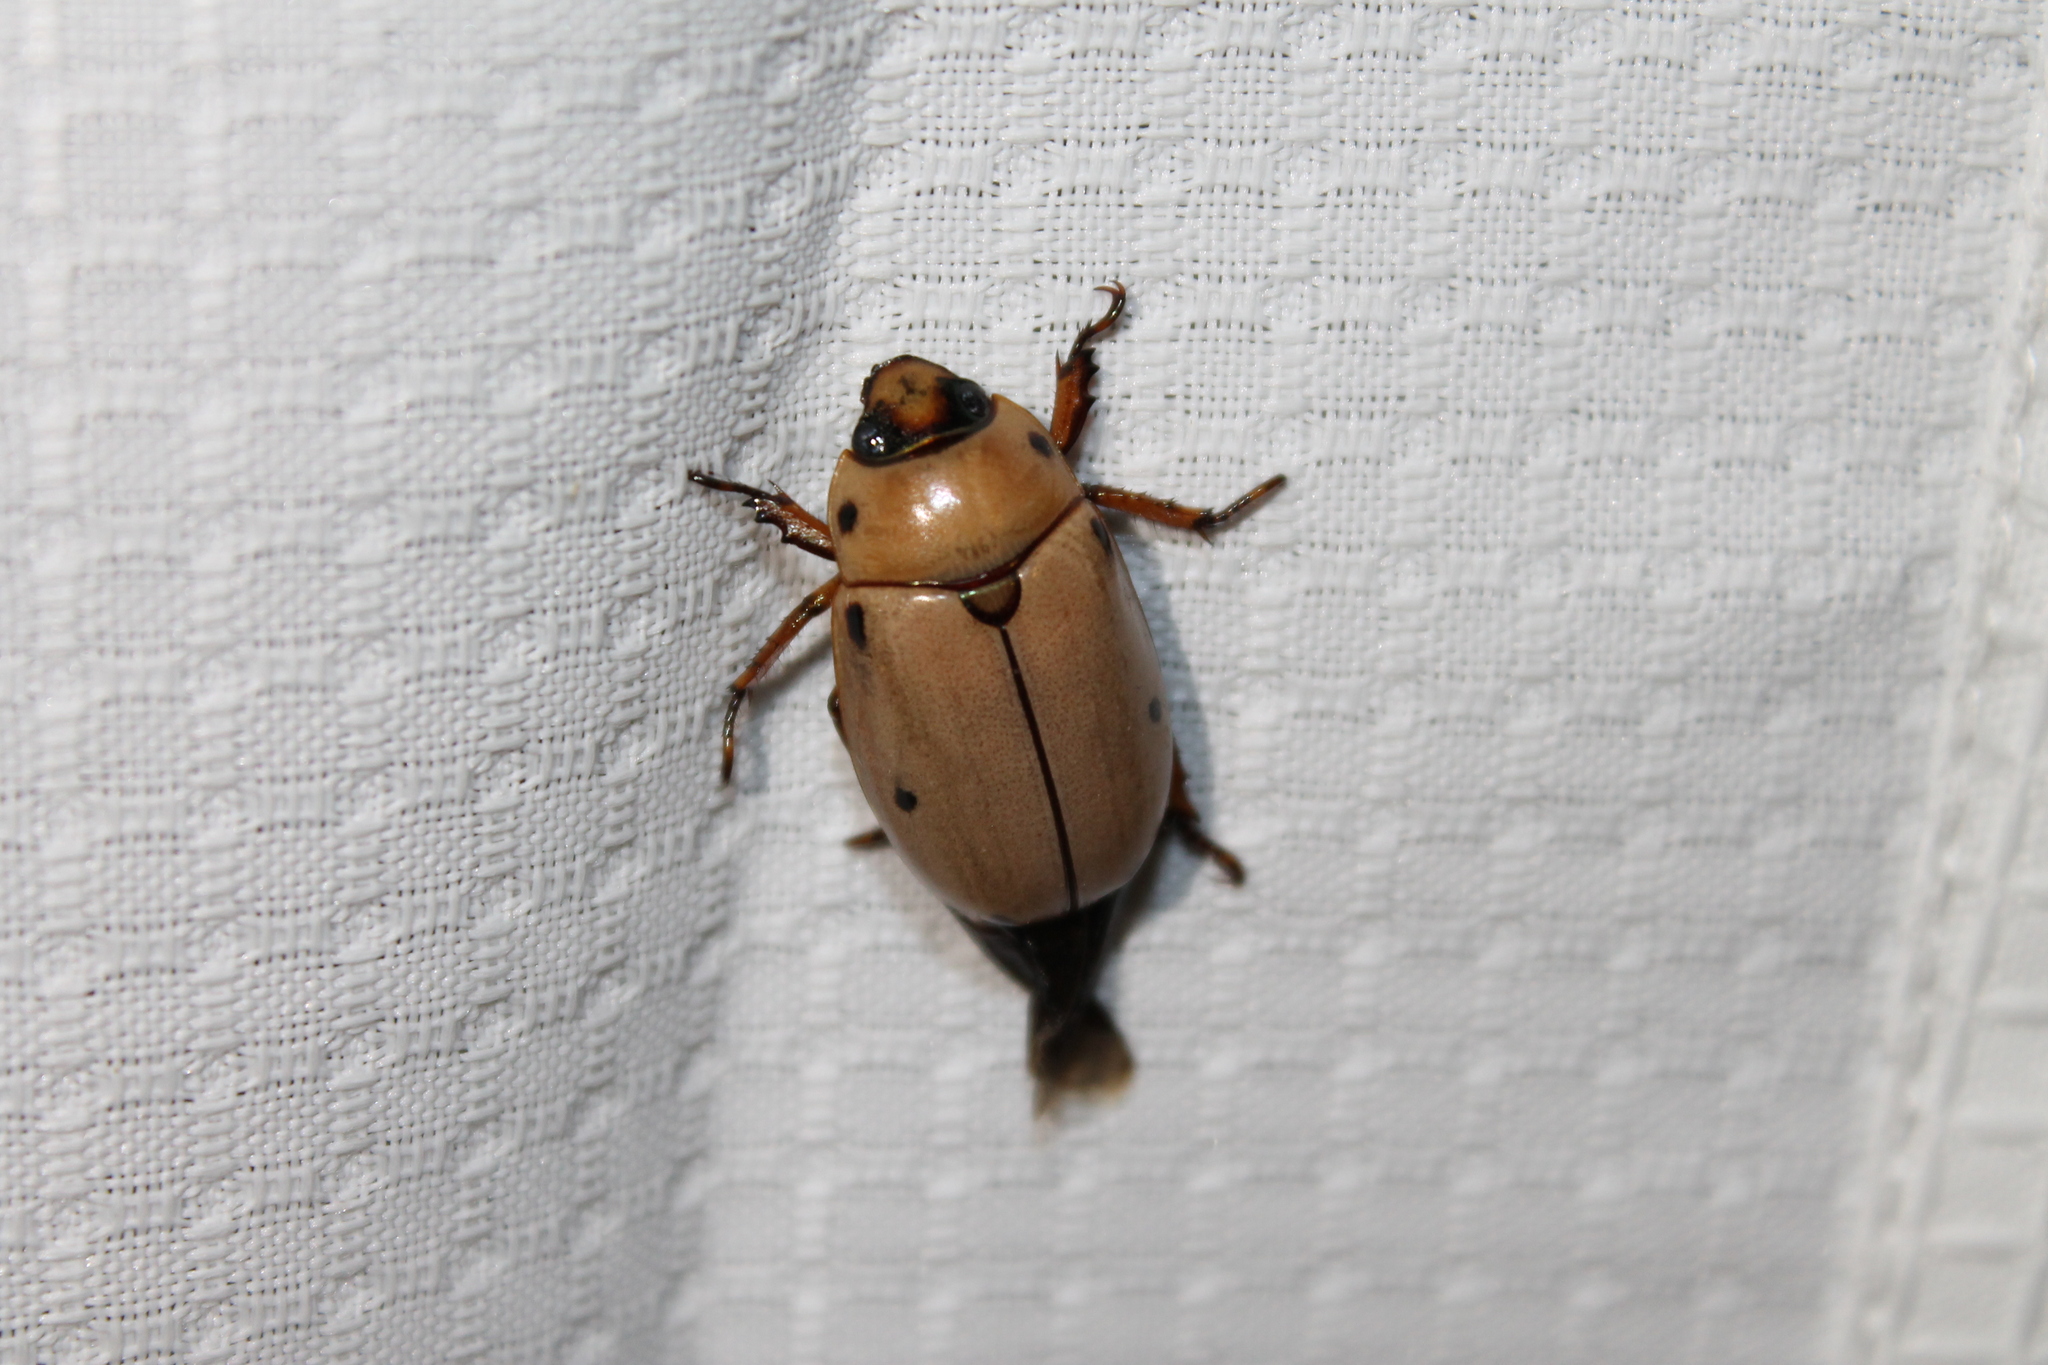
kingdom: Animalia
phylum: Arthropoda
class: Insecta
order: Coleoptera
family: Scarabaeidae
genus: Pelidnota
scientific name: Pelidnota punctata
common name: Grapevine beetle
